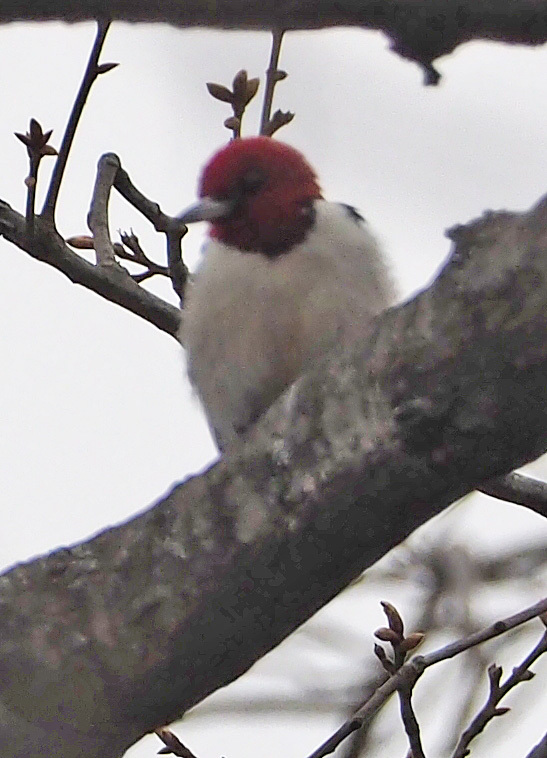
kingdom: Animalia
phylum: Chordata
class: Aves
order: Piciformes
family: Picidae
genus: Melanerpes
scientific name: Melanerpes erythrocephalus
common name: Red-headed woodpecker
